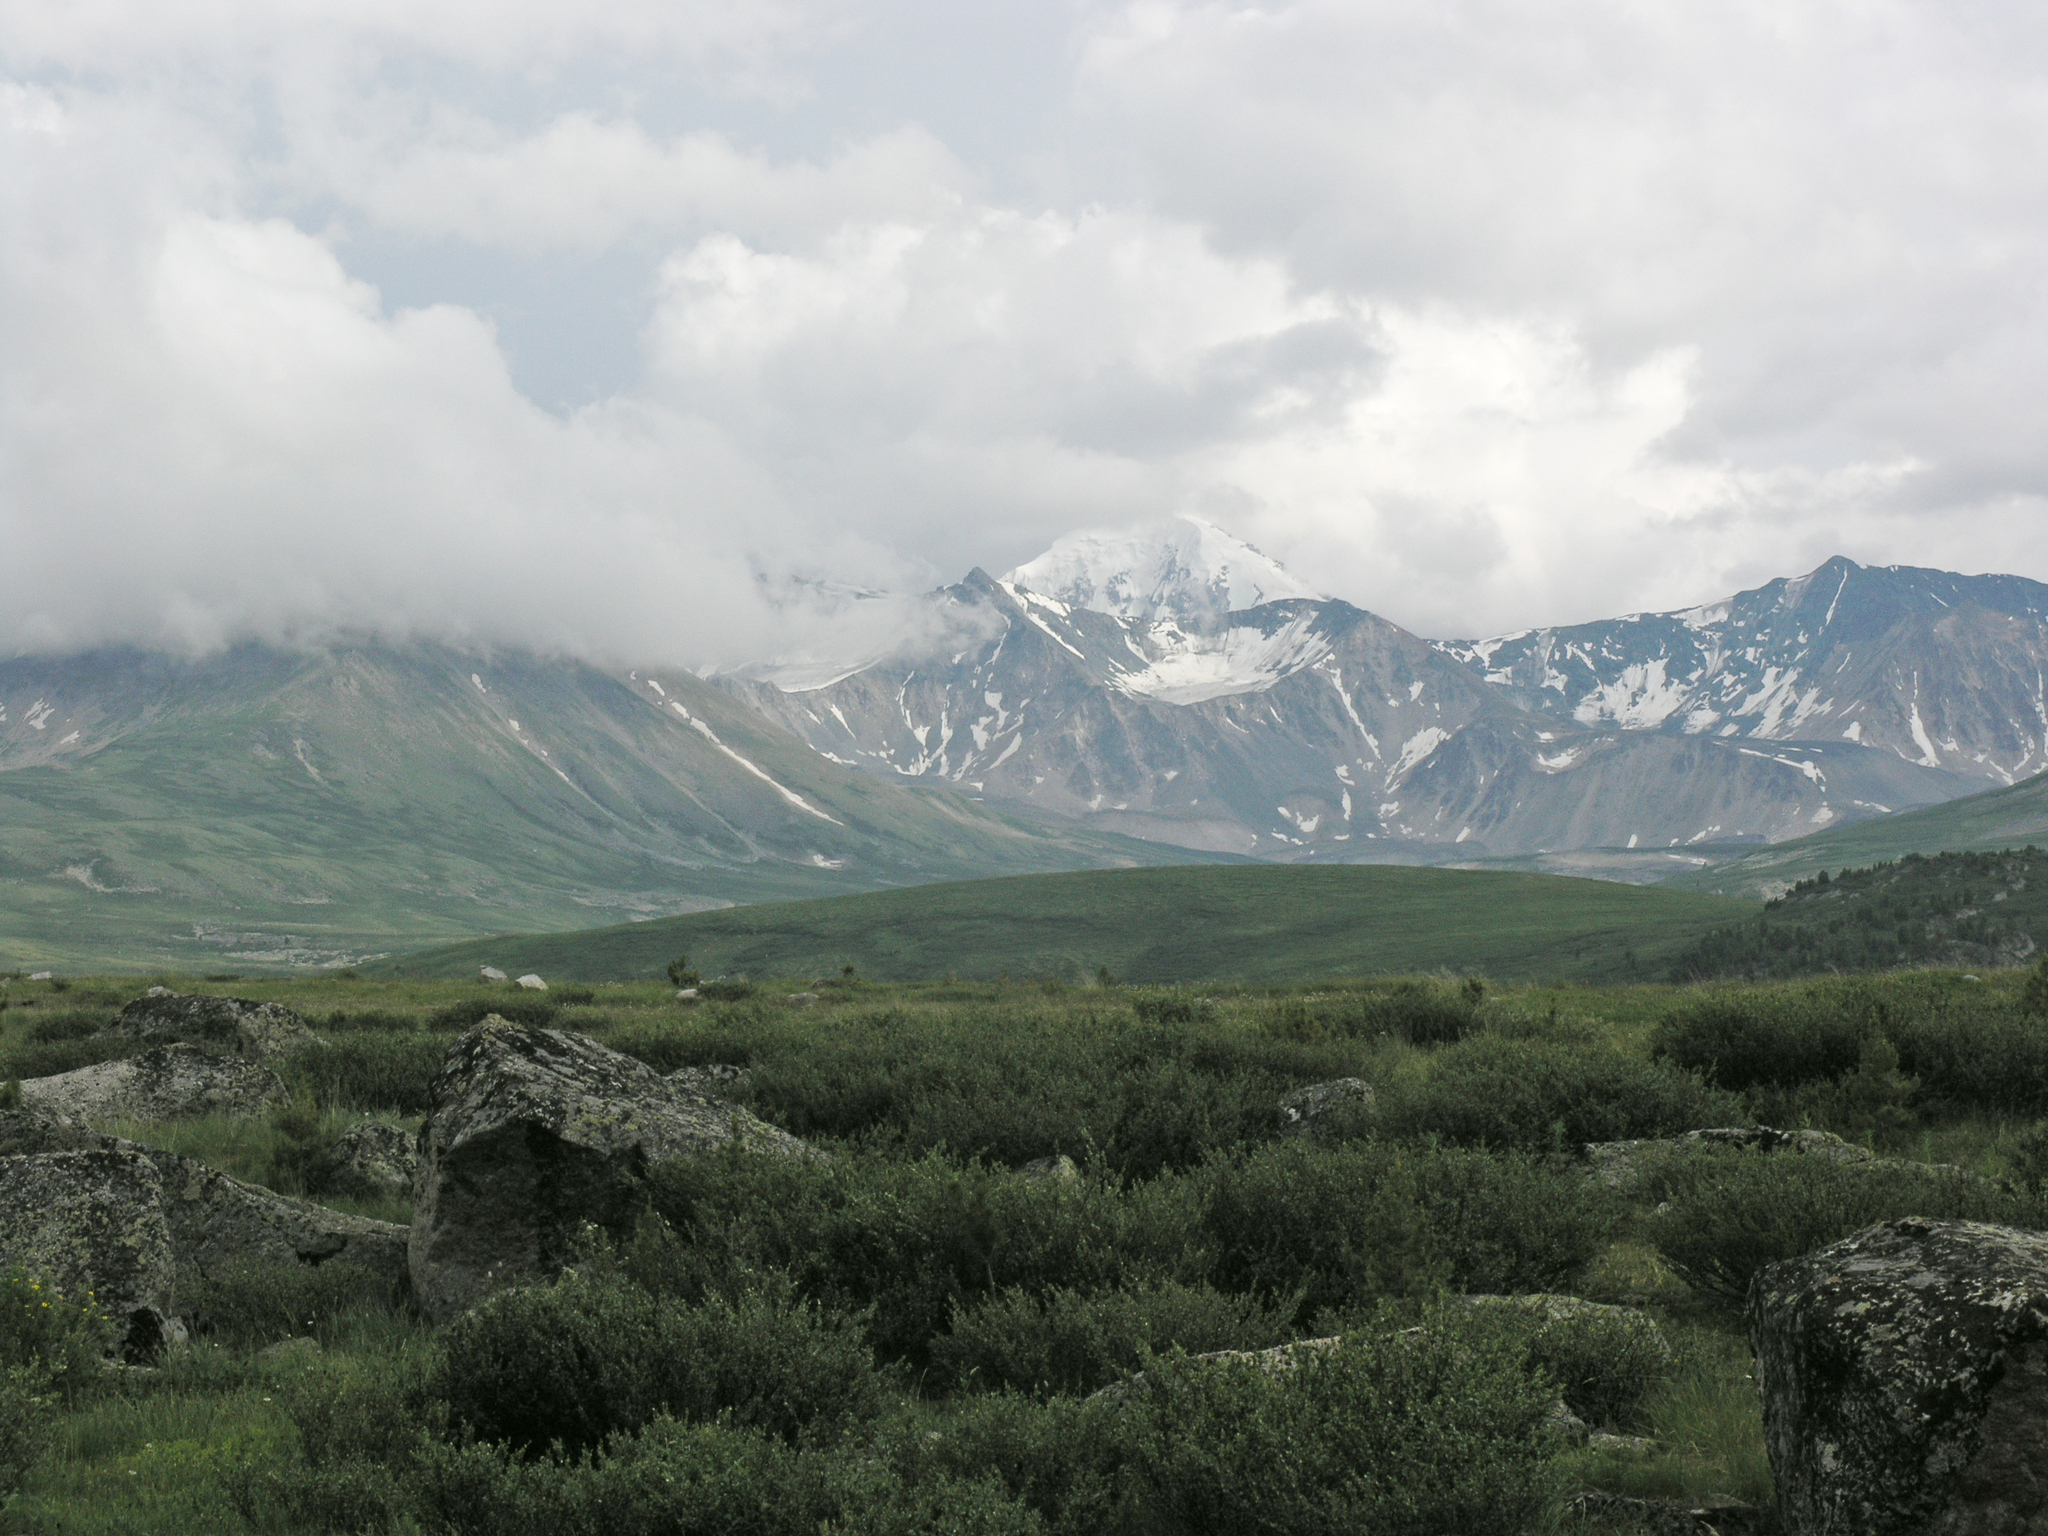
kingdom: Plantae
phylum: Tracheophyta
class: Magnoliopsida
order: Fagales
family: Betulaceae
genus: Betula
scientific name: Betula glandulosa
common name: Dwarf birch
